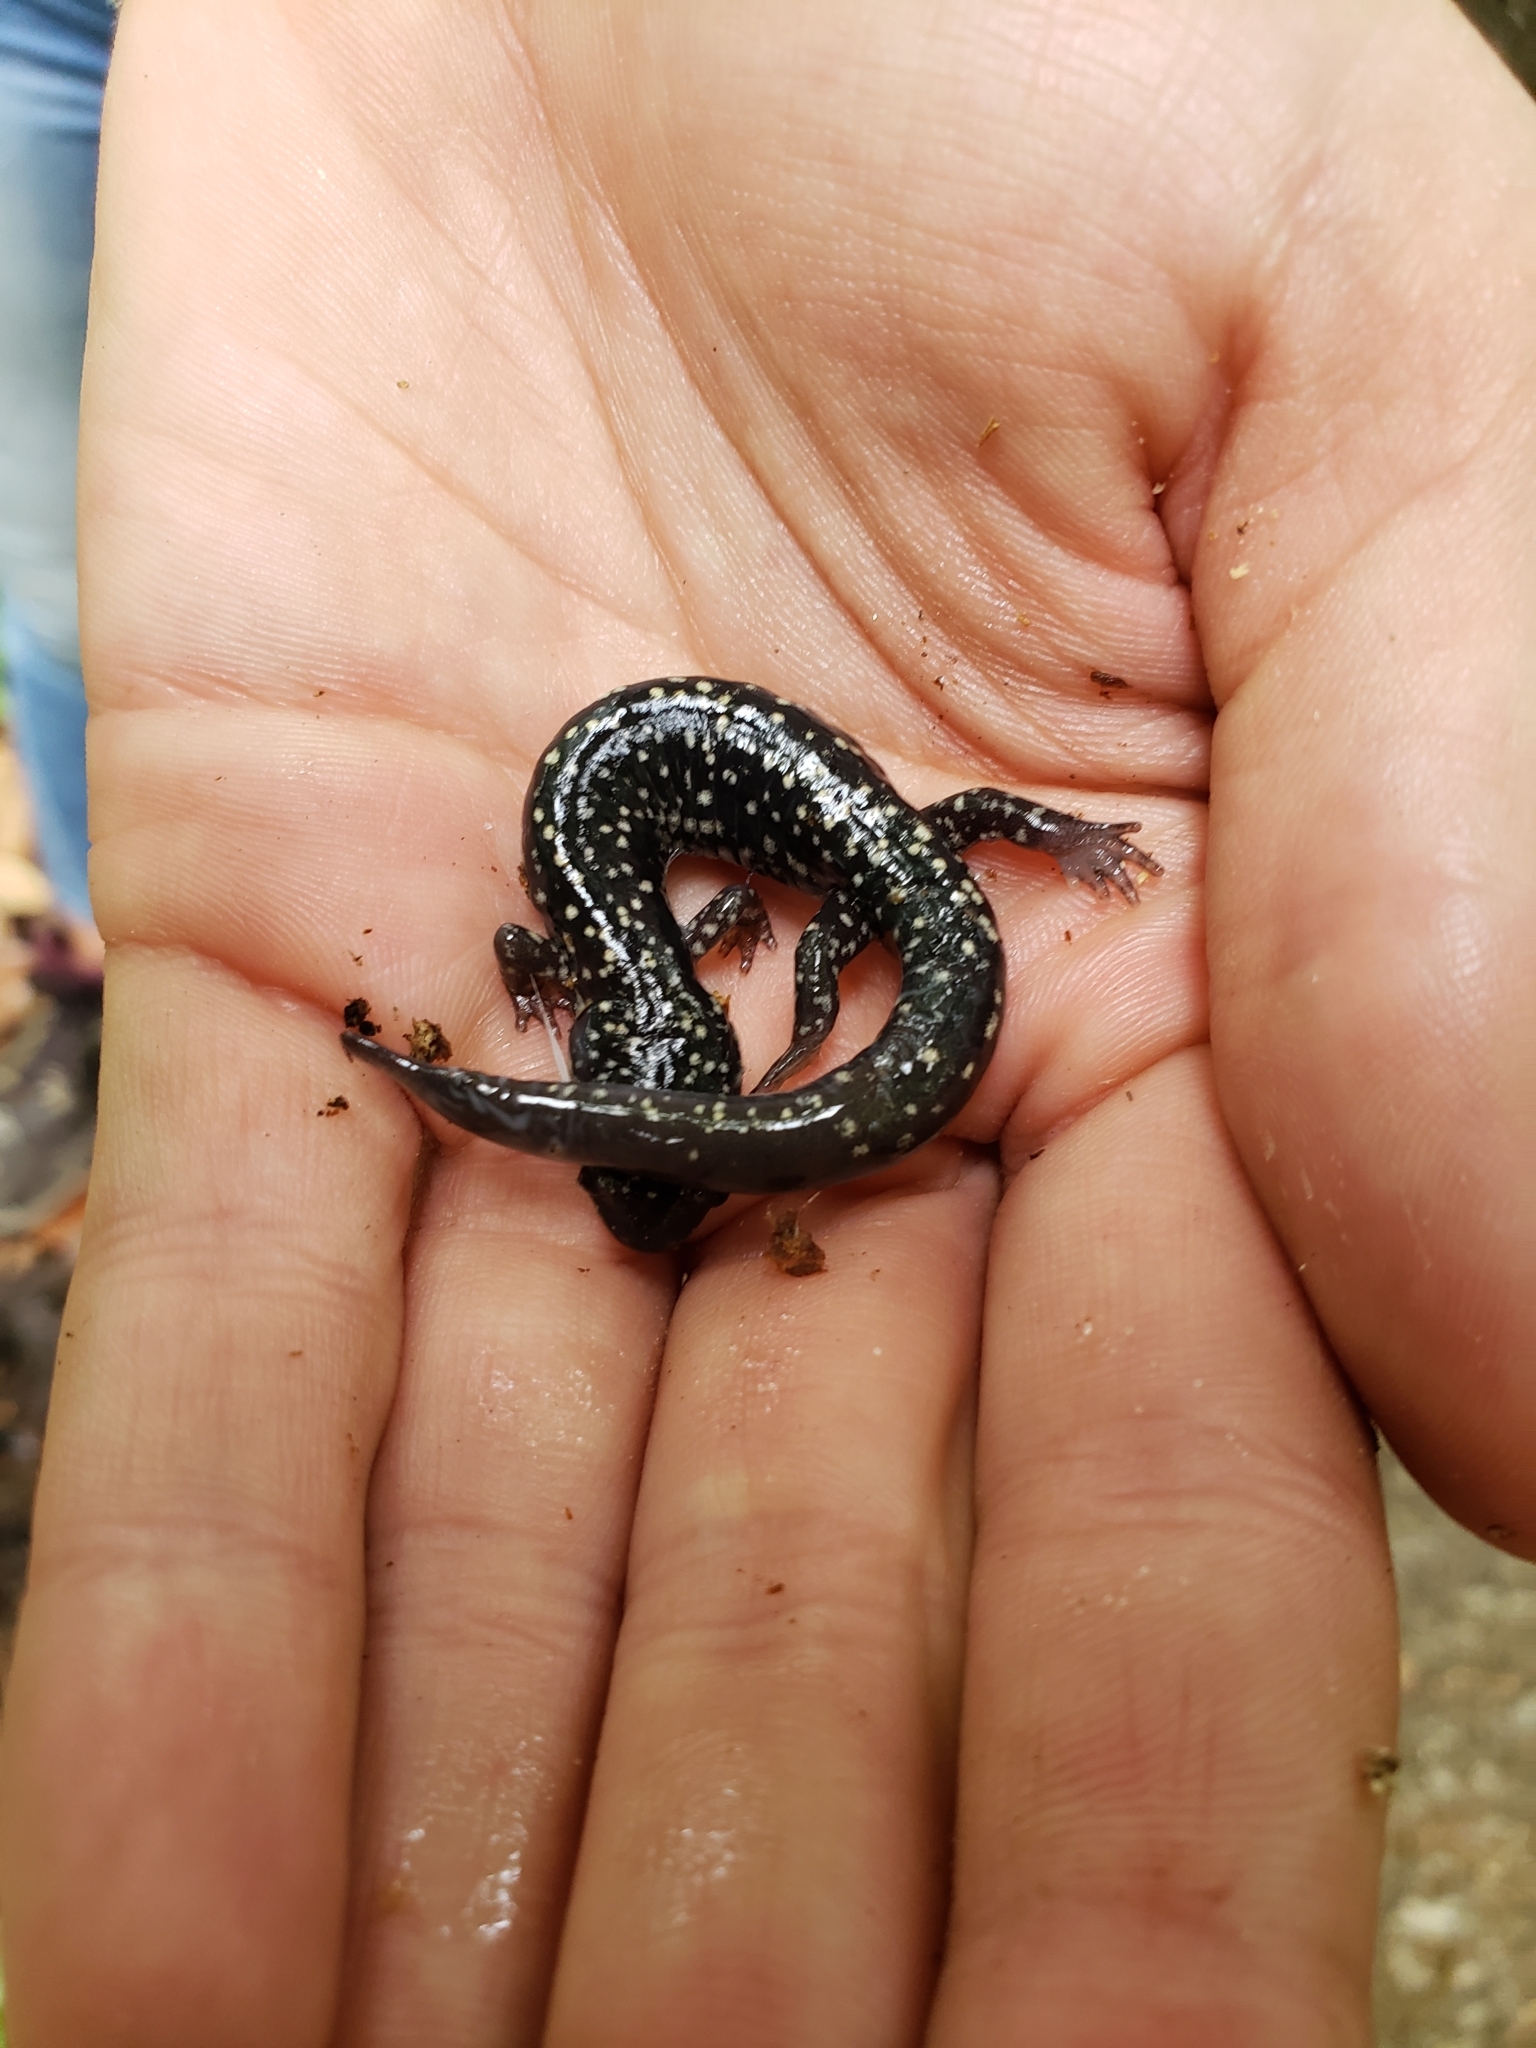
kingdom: Animalia
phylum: Chordata
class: Amphibia
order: Caudata
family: Plethodontidae
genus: Plethodon
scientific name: Plethodon mississippi
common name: Mississippi slimy salamander
